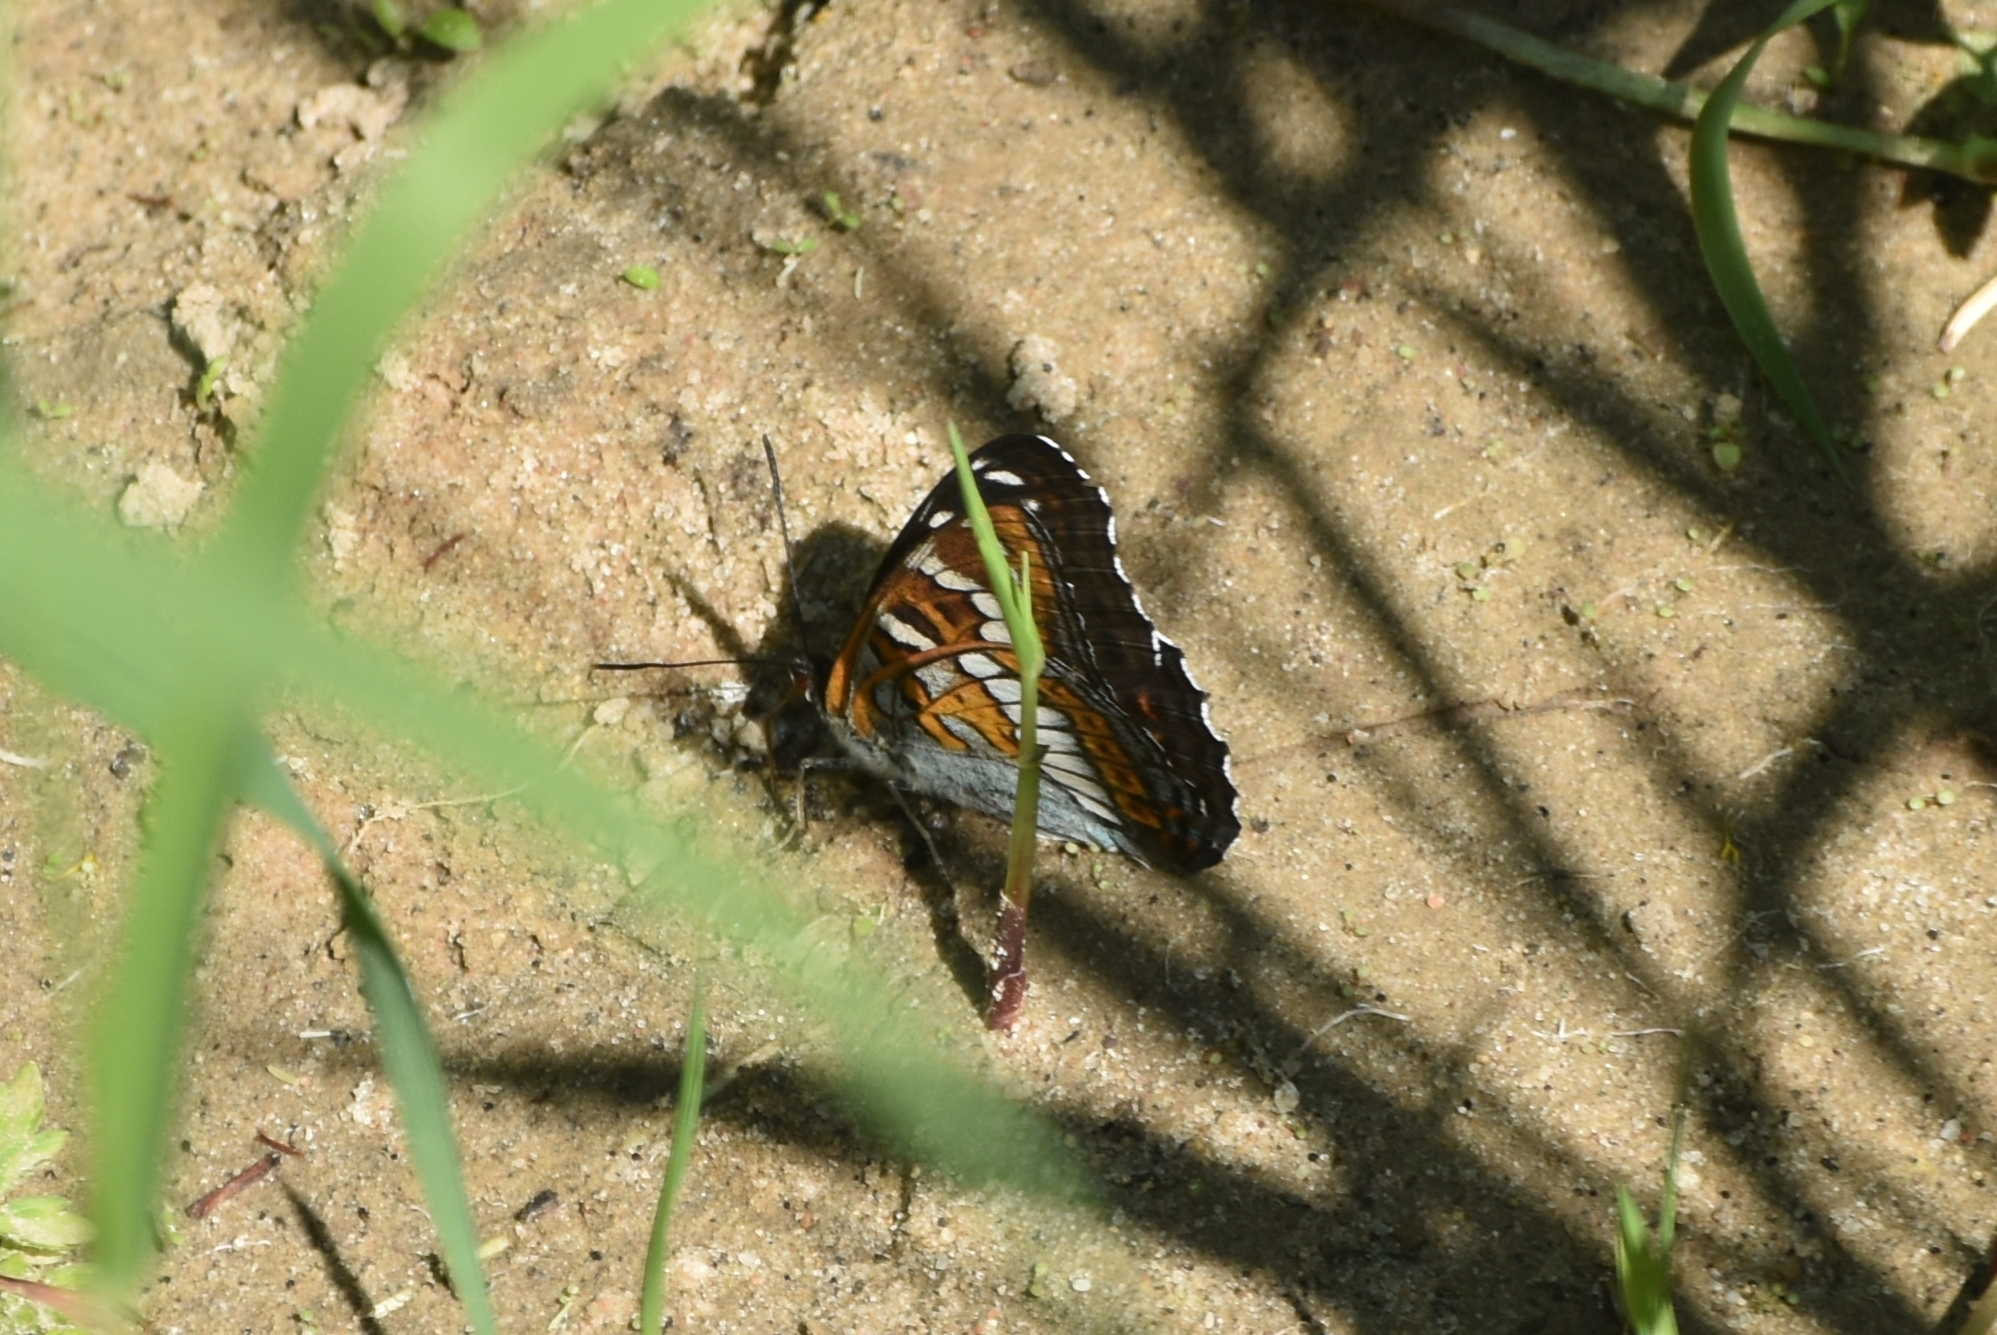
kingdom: Animalia
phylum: Arthropoda
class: Insecta
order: Lepidoptera
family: Nymphalidae
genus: Limenitis
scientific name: Limenitis populi
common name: Poplar admiral
